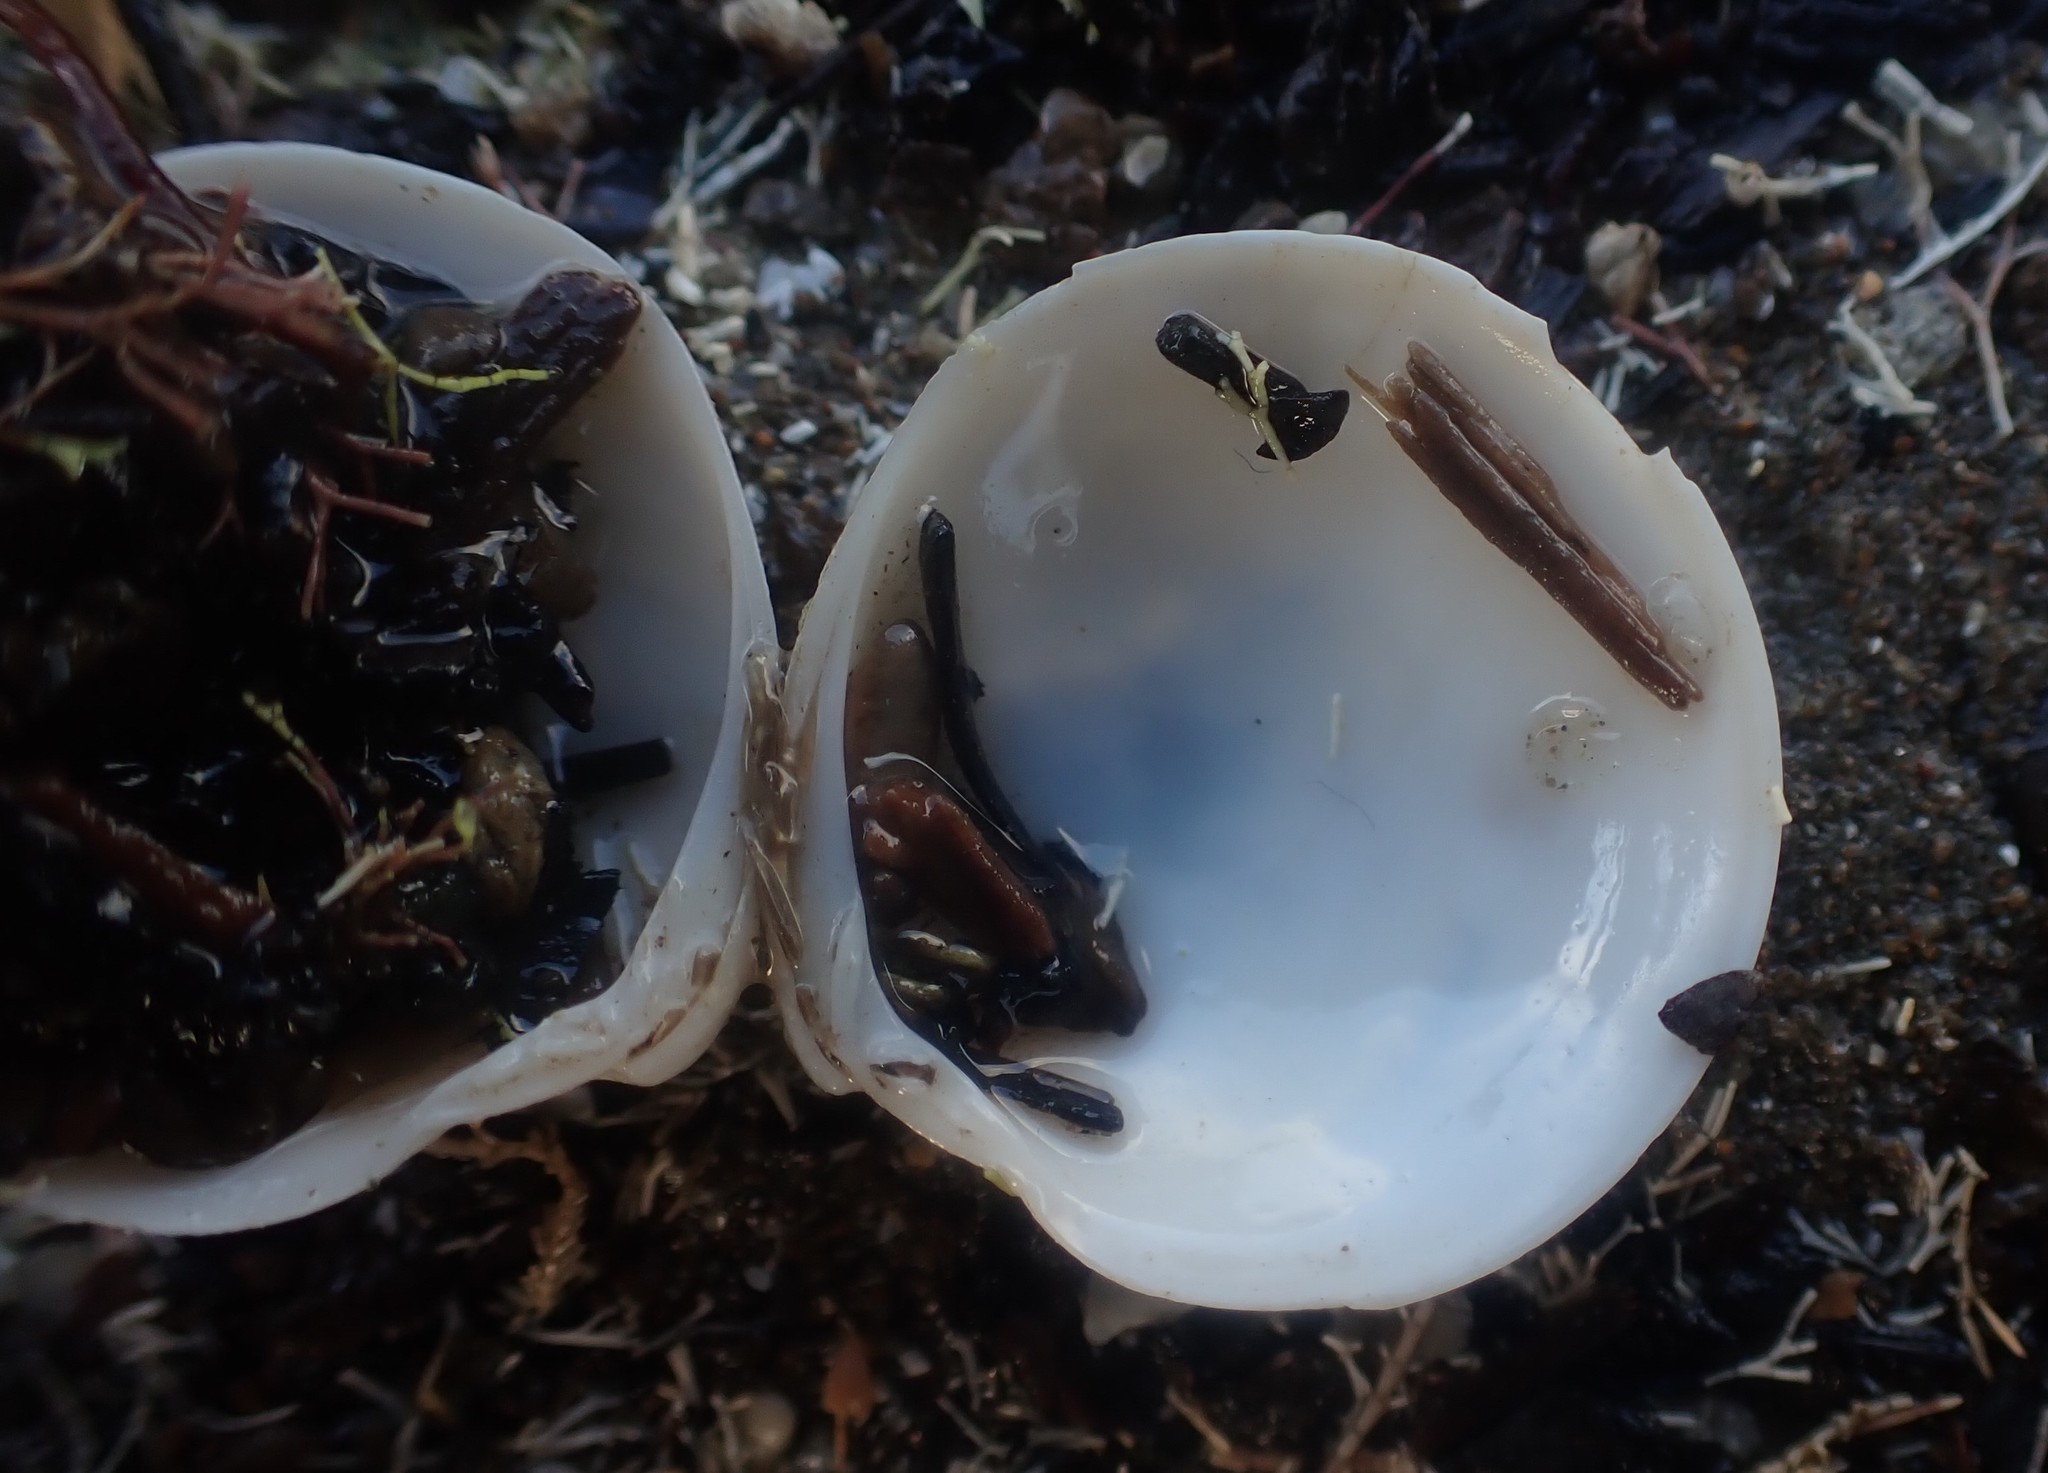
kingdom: Animalia
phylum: Mollusca
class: Bivalvia
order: Venerida
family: Veneridae
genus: Dosinia
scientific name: Dosinia lambata
